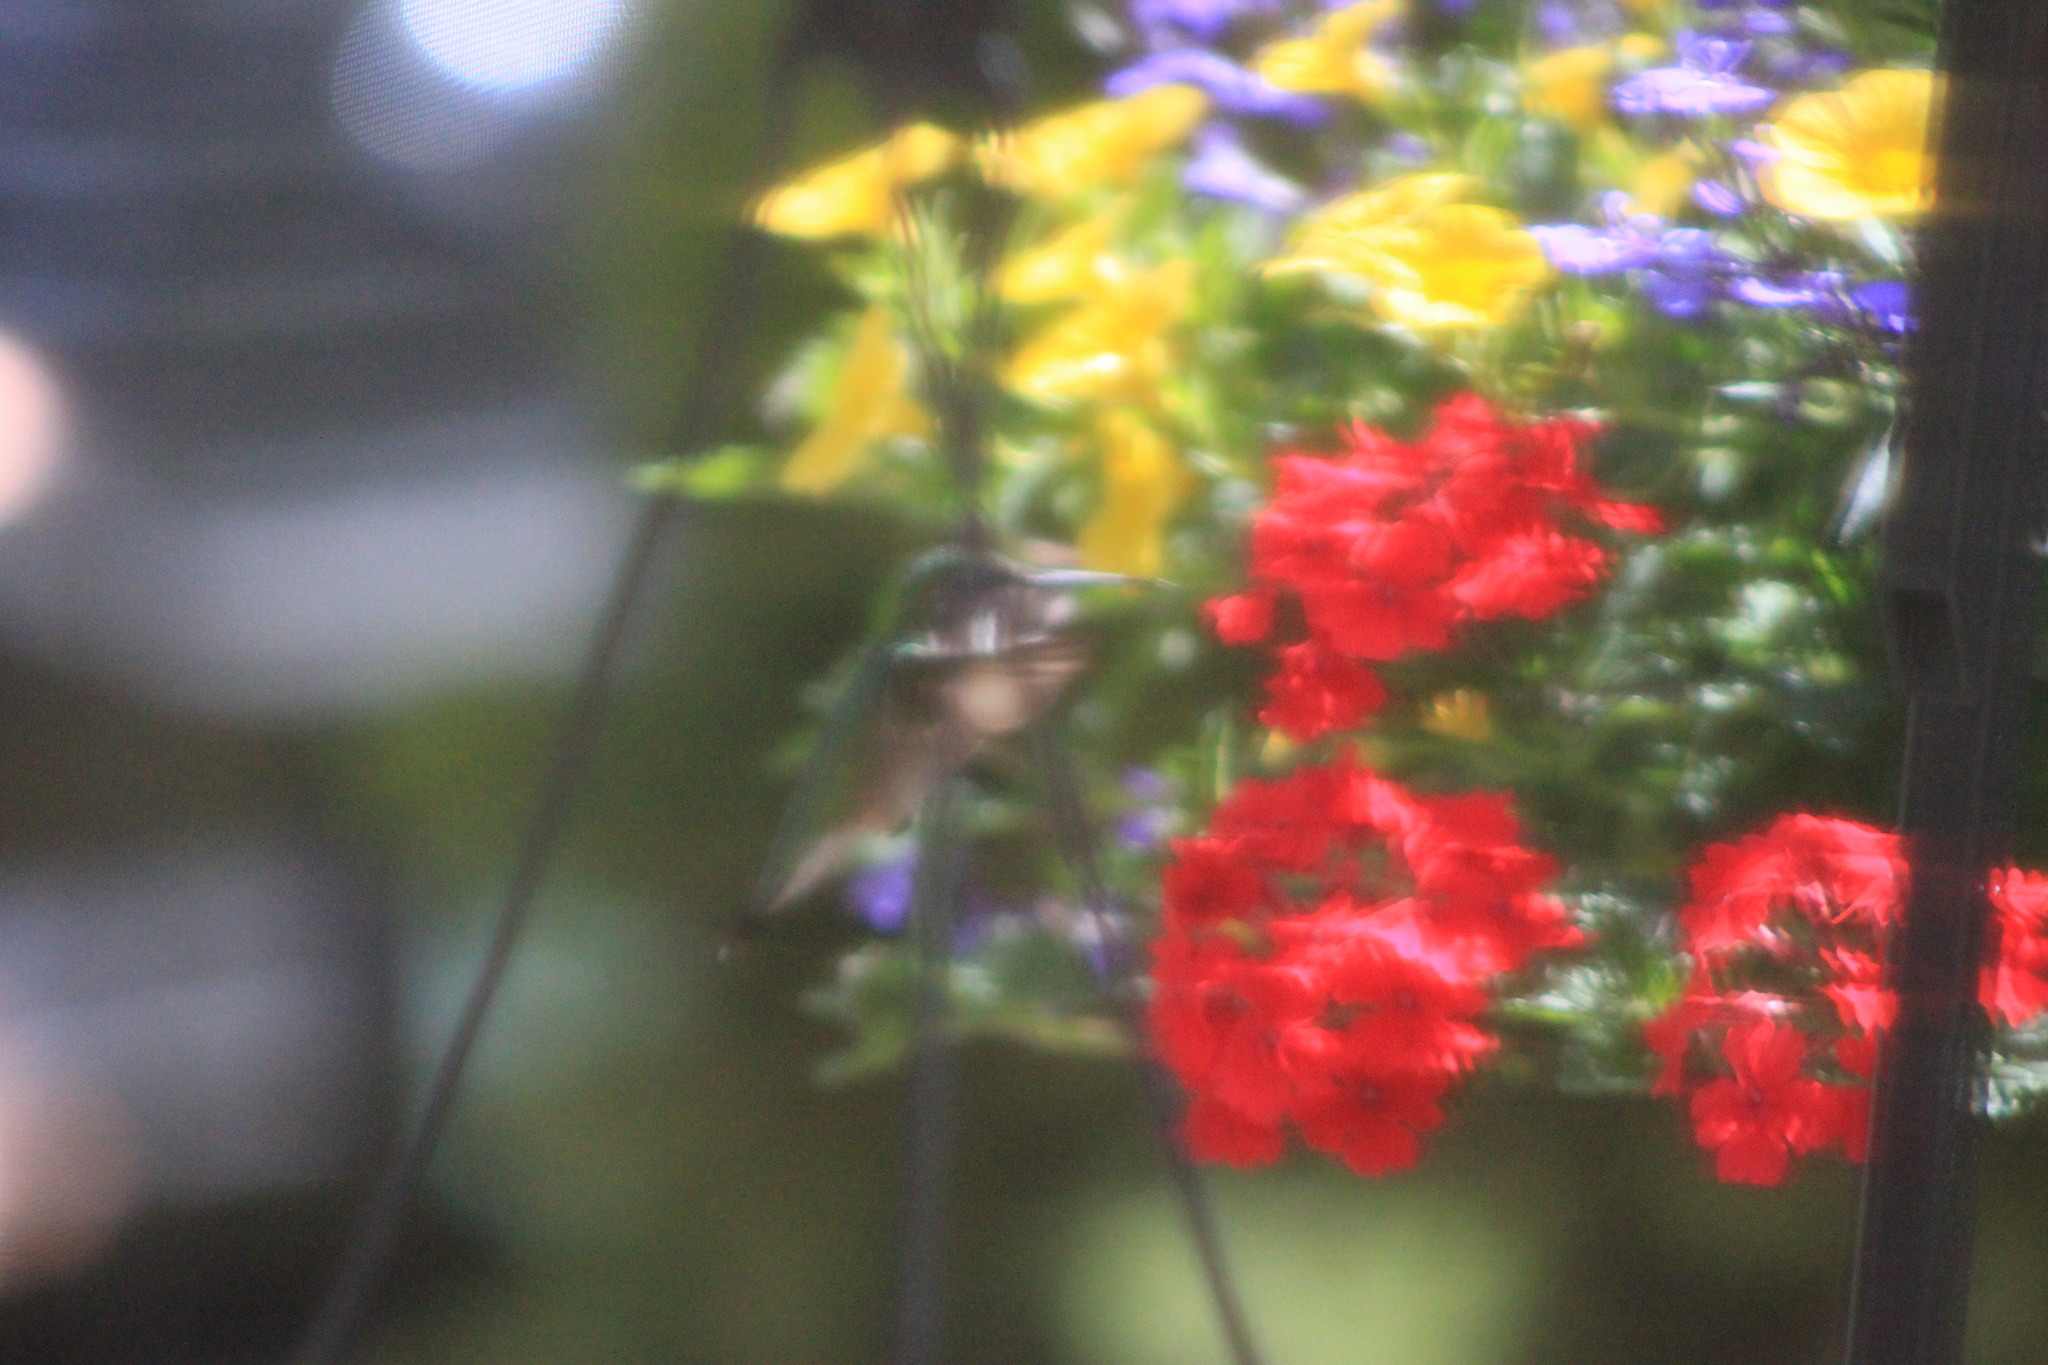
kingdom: Animalia
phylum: Chordata
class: Aves
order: Apodiformes
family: Trochilidae
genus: Archilochus
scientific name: Archilochus colubris
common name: Ruby-throated hummingbird
